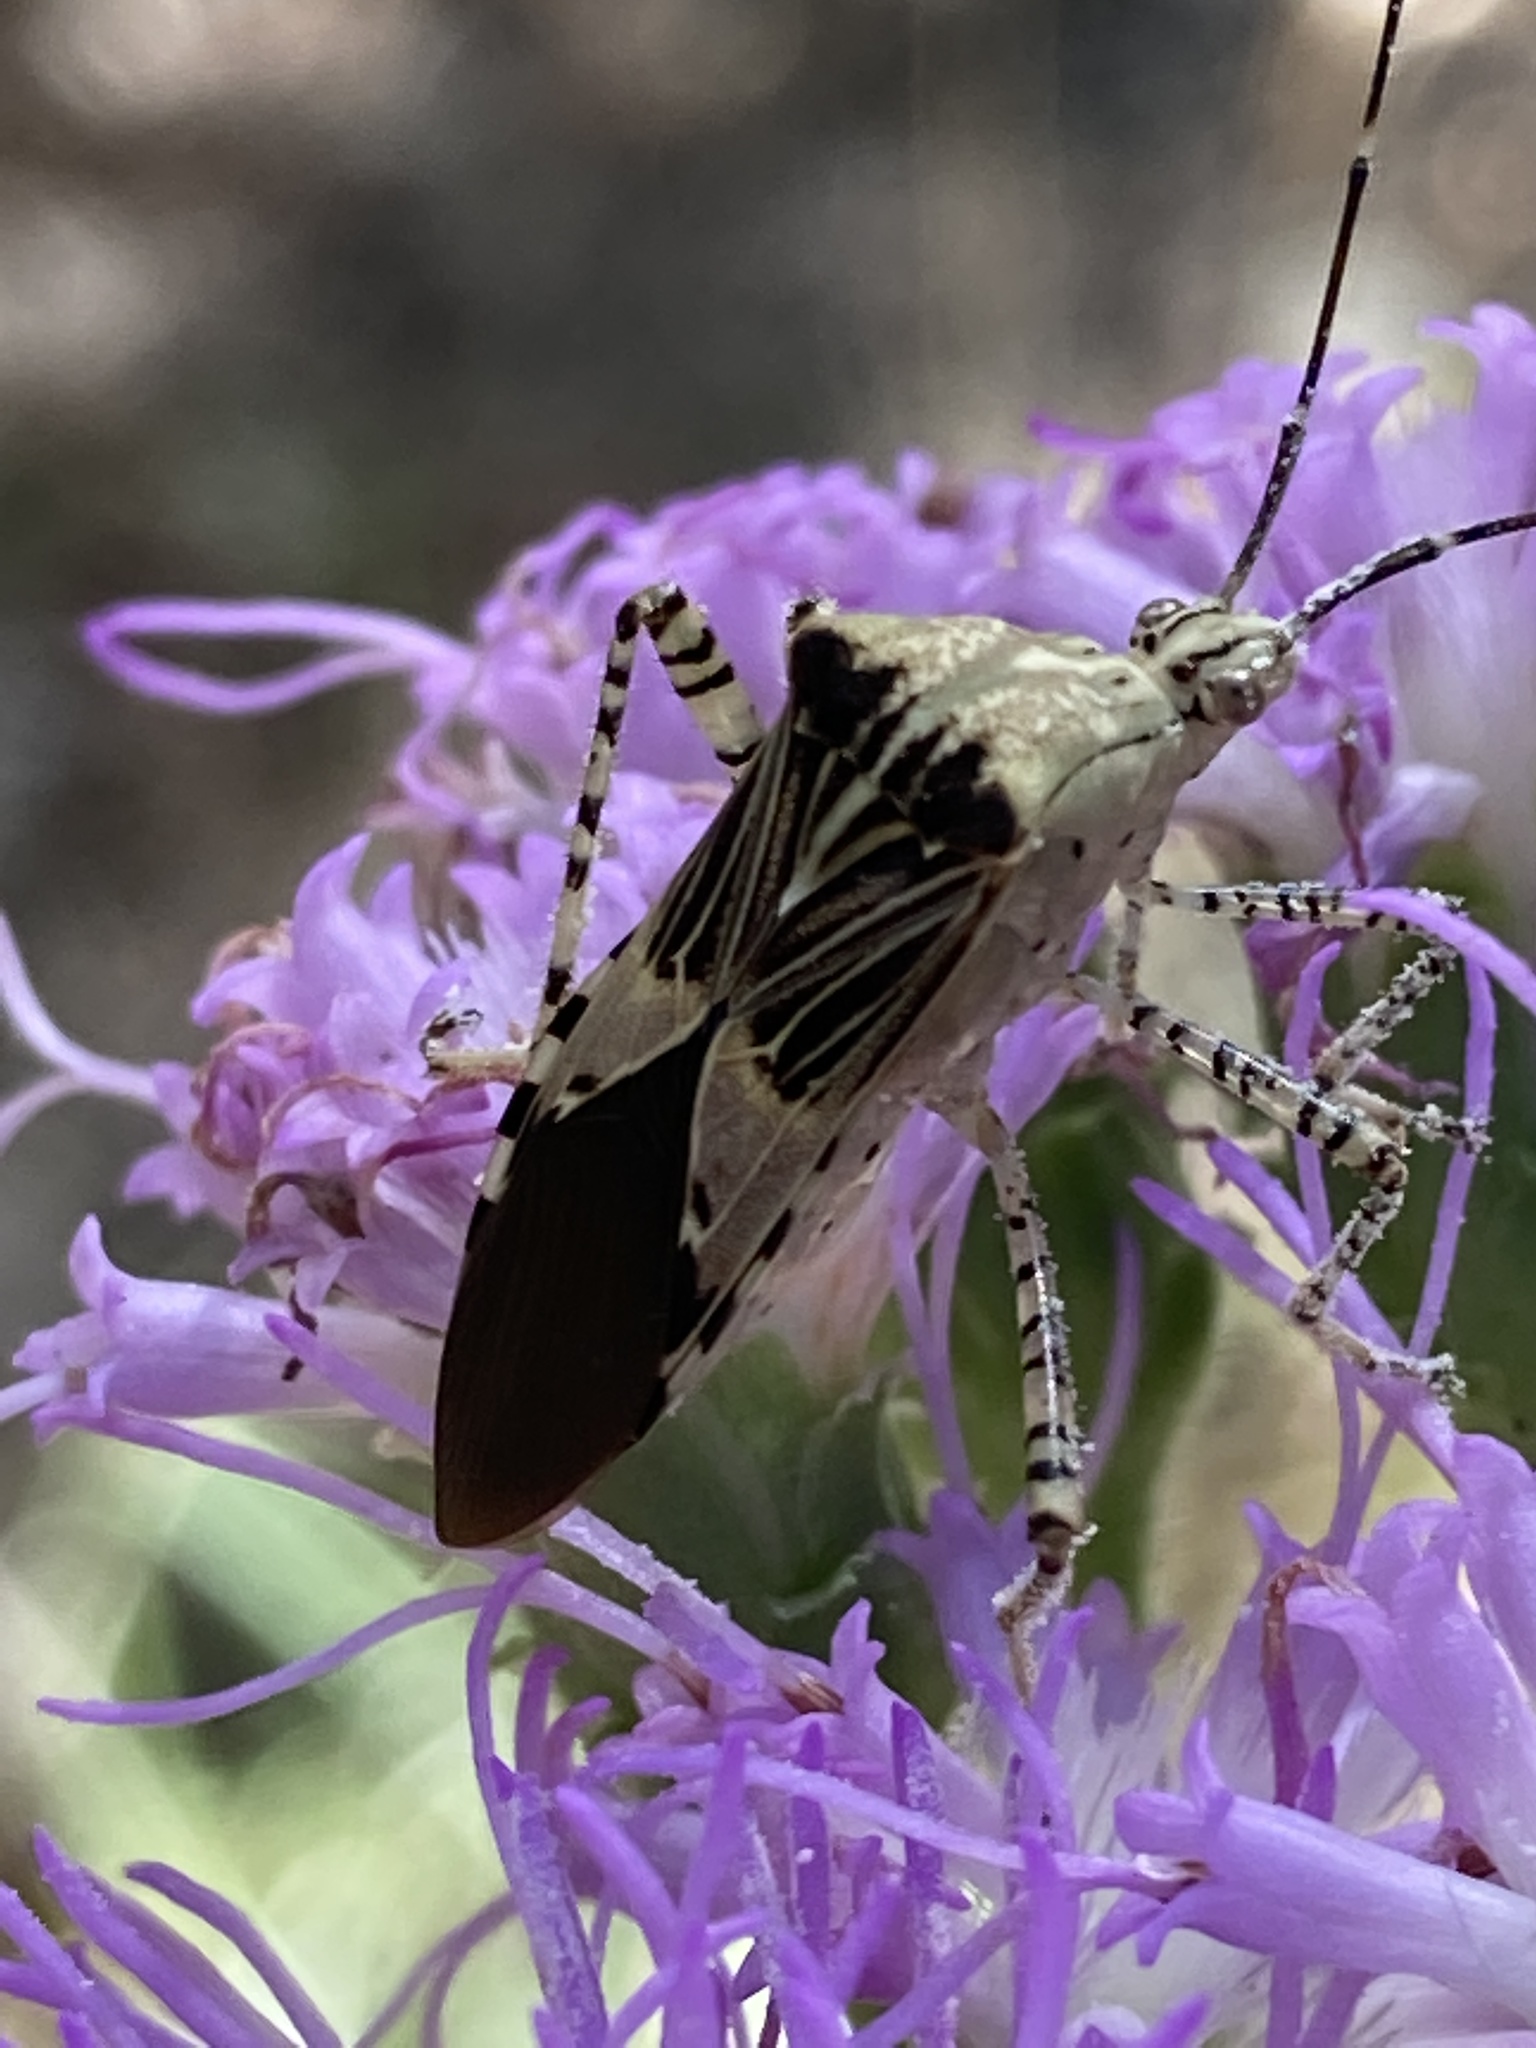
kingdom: Animalia
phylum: Arthropoda
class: Insecta
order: Hemiptera
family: Coreidae
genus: Hypselonotus
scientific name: Hypselonotus punctiventris
